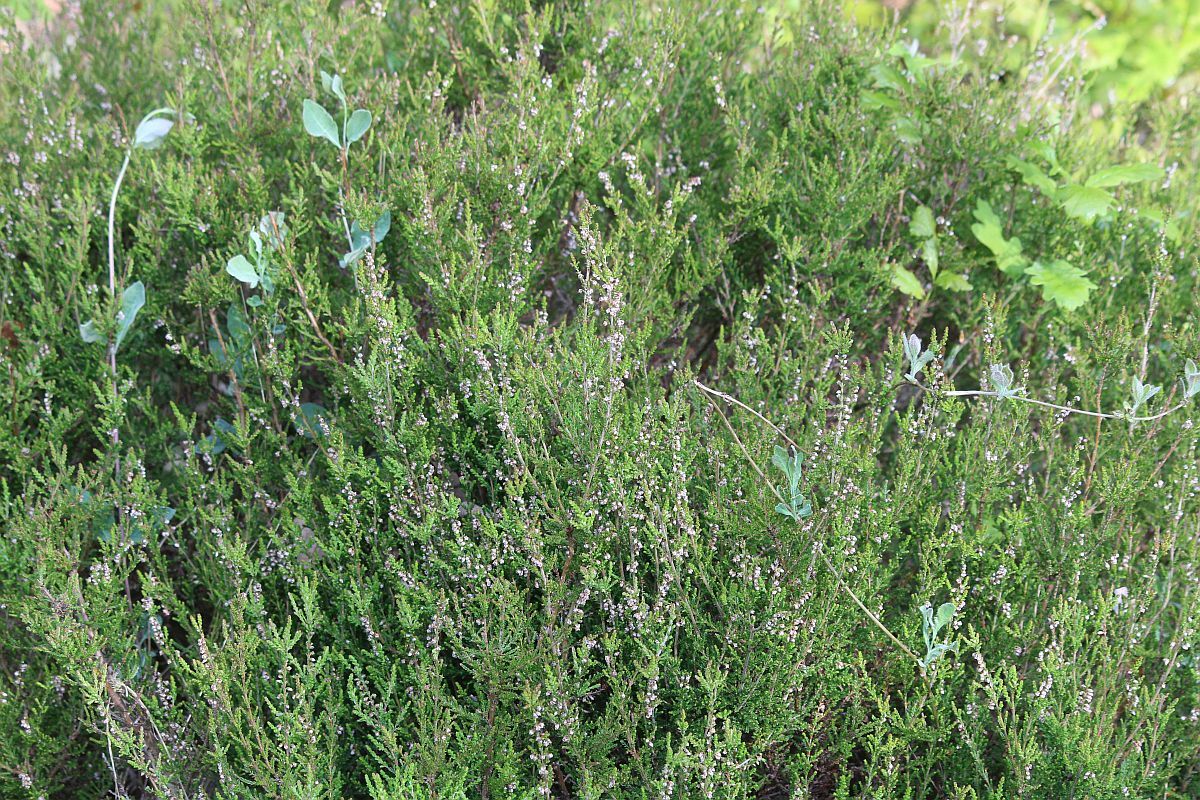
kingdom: Plantae
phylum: Tracheophyta
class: Magnoliopsida
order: Ericales
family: Ericaceae
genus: Calluna
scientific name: Calluna vulgaris
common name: Heather
